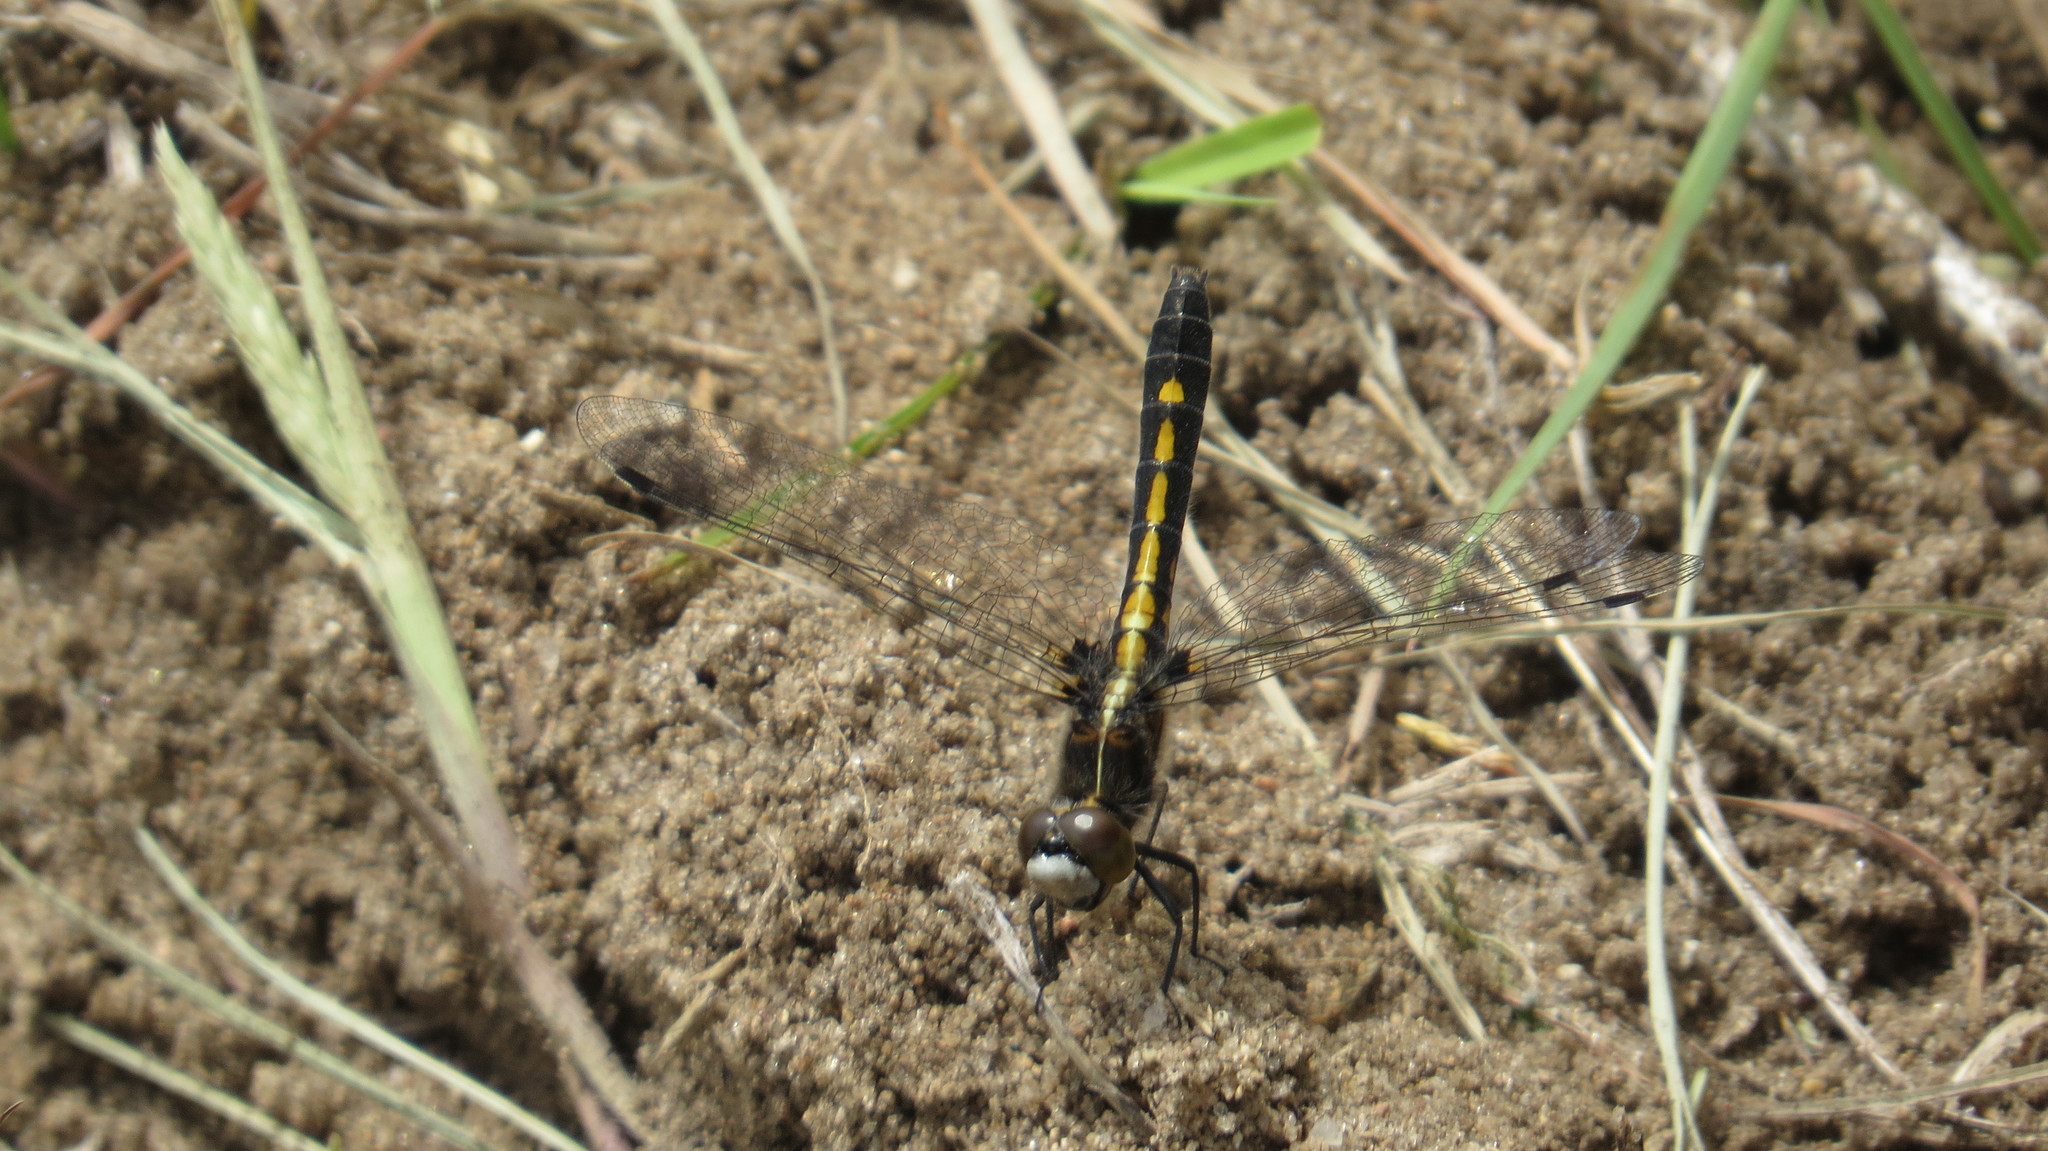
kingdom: Animalia
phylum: Arthropoda
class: Insecta
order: Odonata
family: Libellulidae
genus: Leucorrhinia
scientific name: Leucorrhinia intacta
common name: Dot-tailed whiteface
